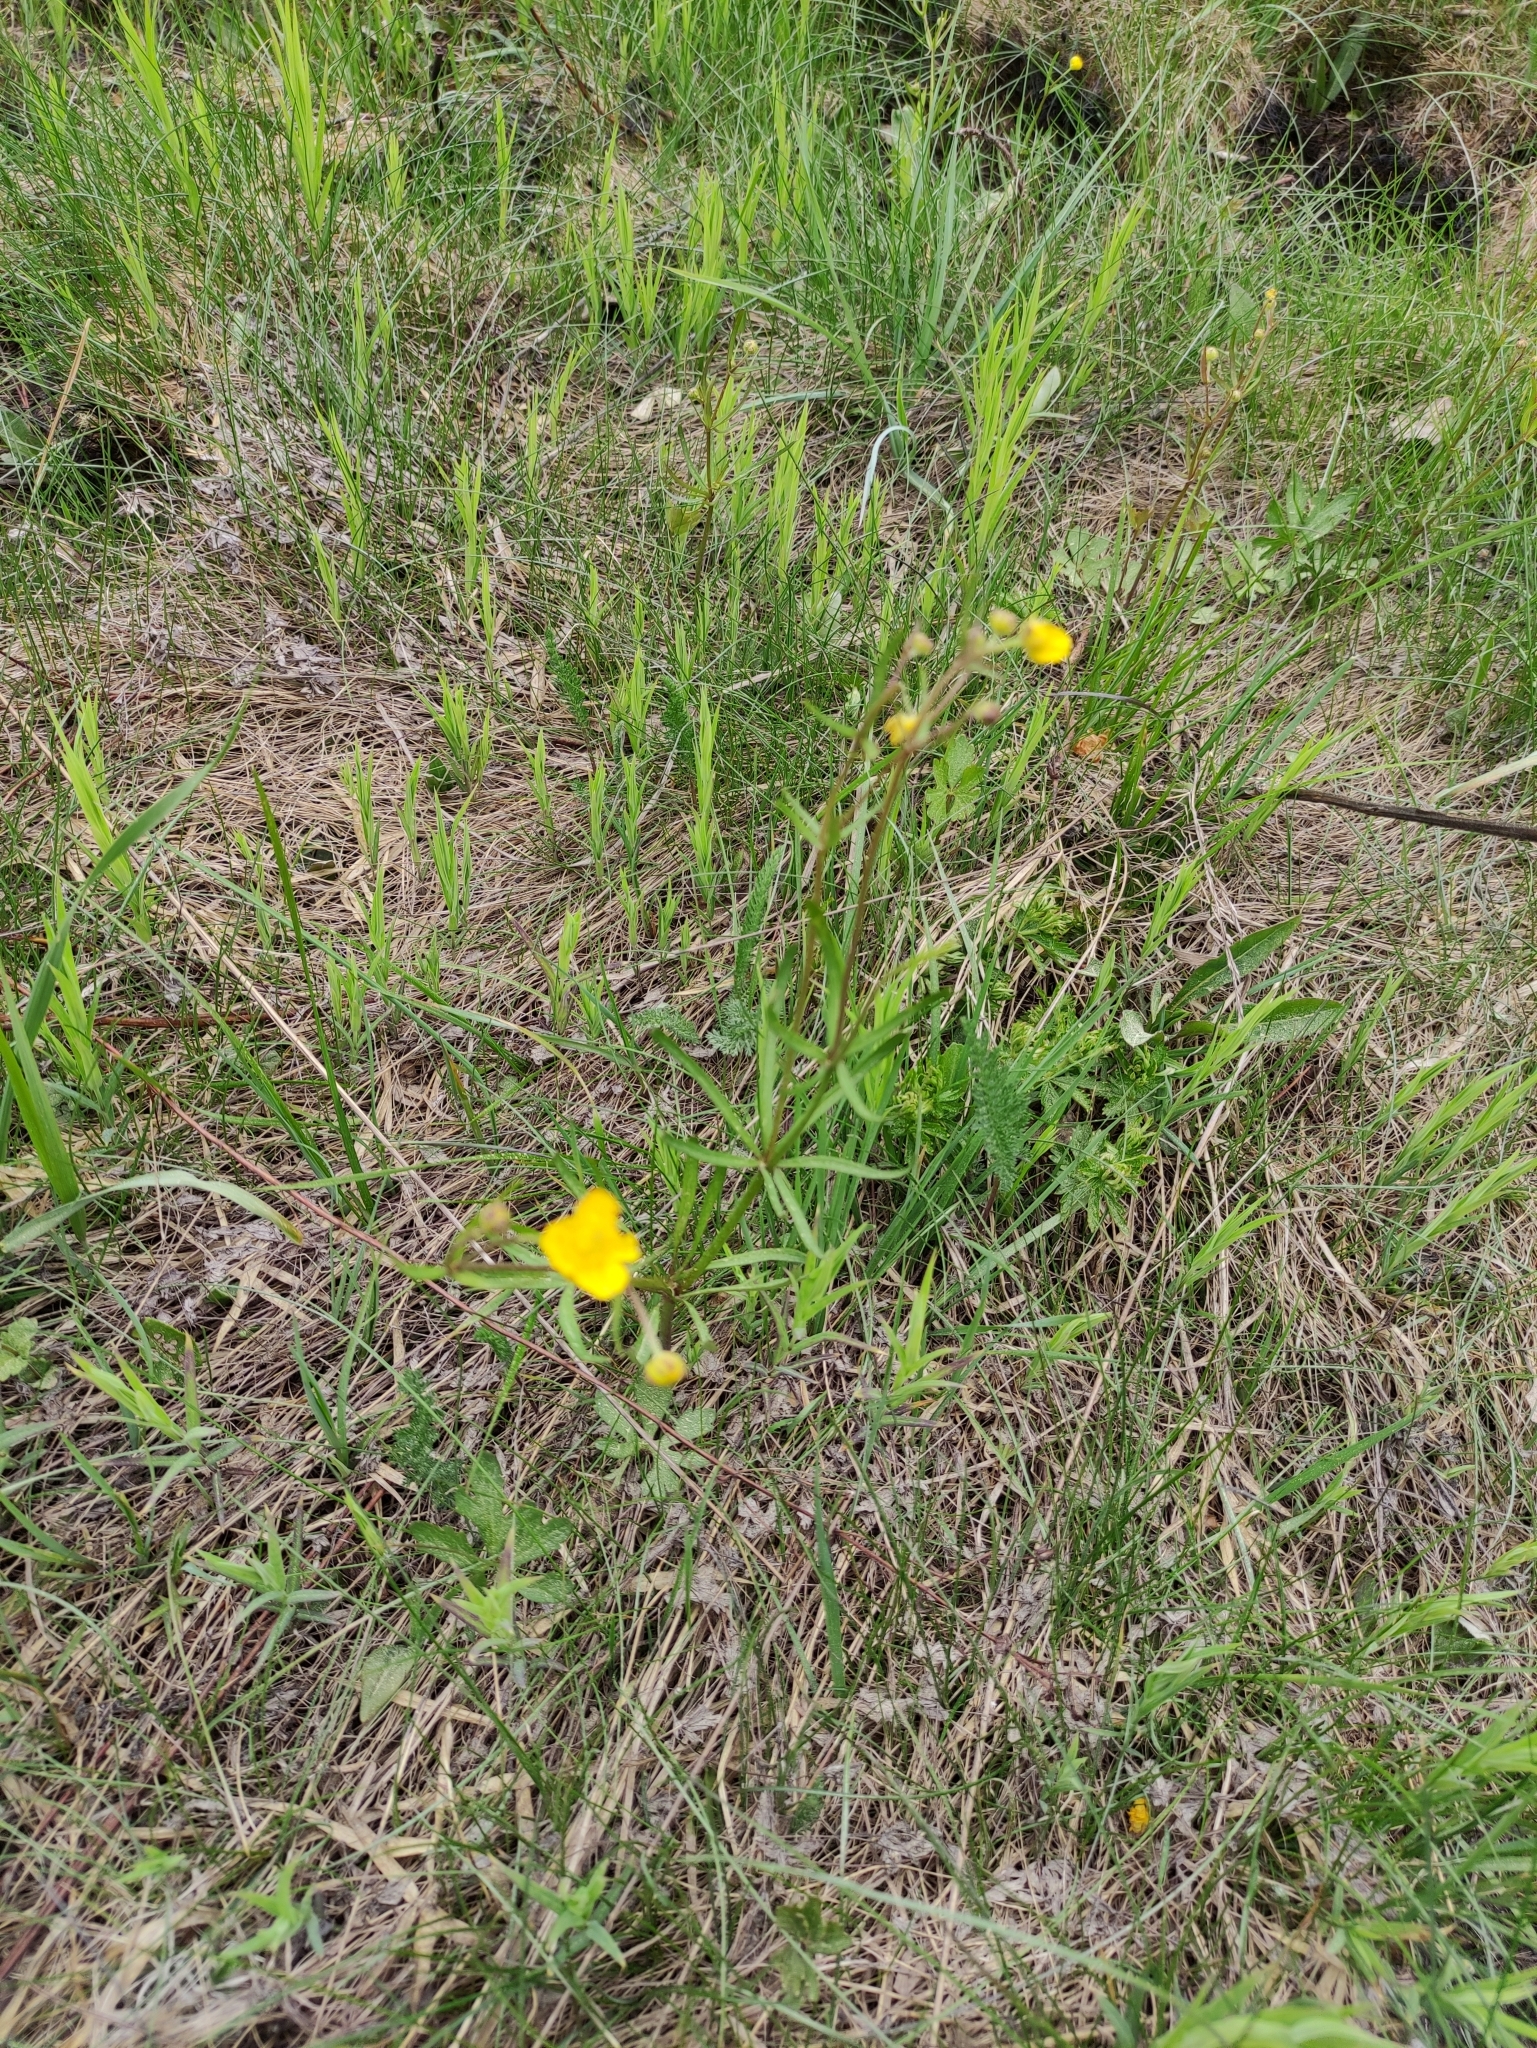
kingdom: Plantae
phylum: Tracheophyta
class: Magnoliopsida
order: Ranunculales
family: Ranunculaceae
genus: Ranunculus
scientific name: Ranunculus auricomus
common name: Goldilocks buttercup
